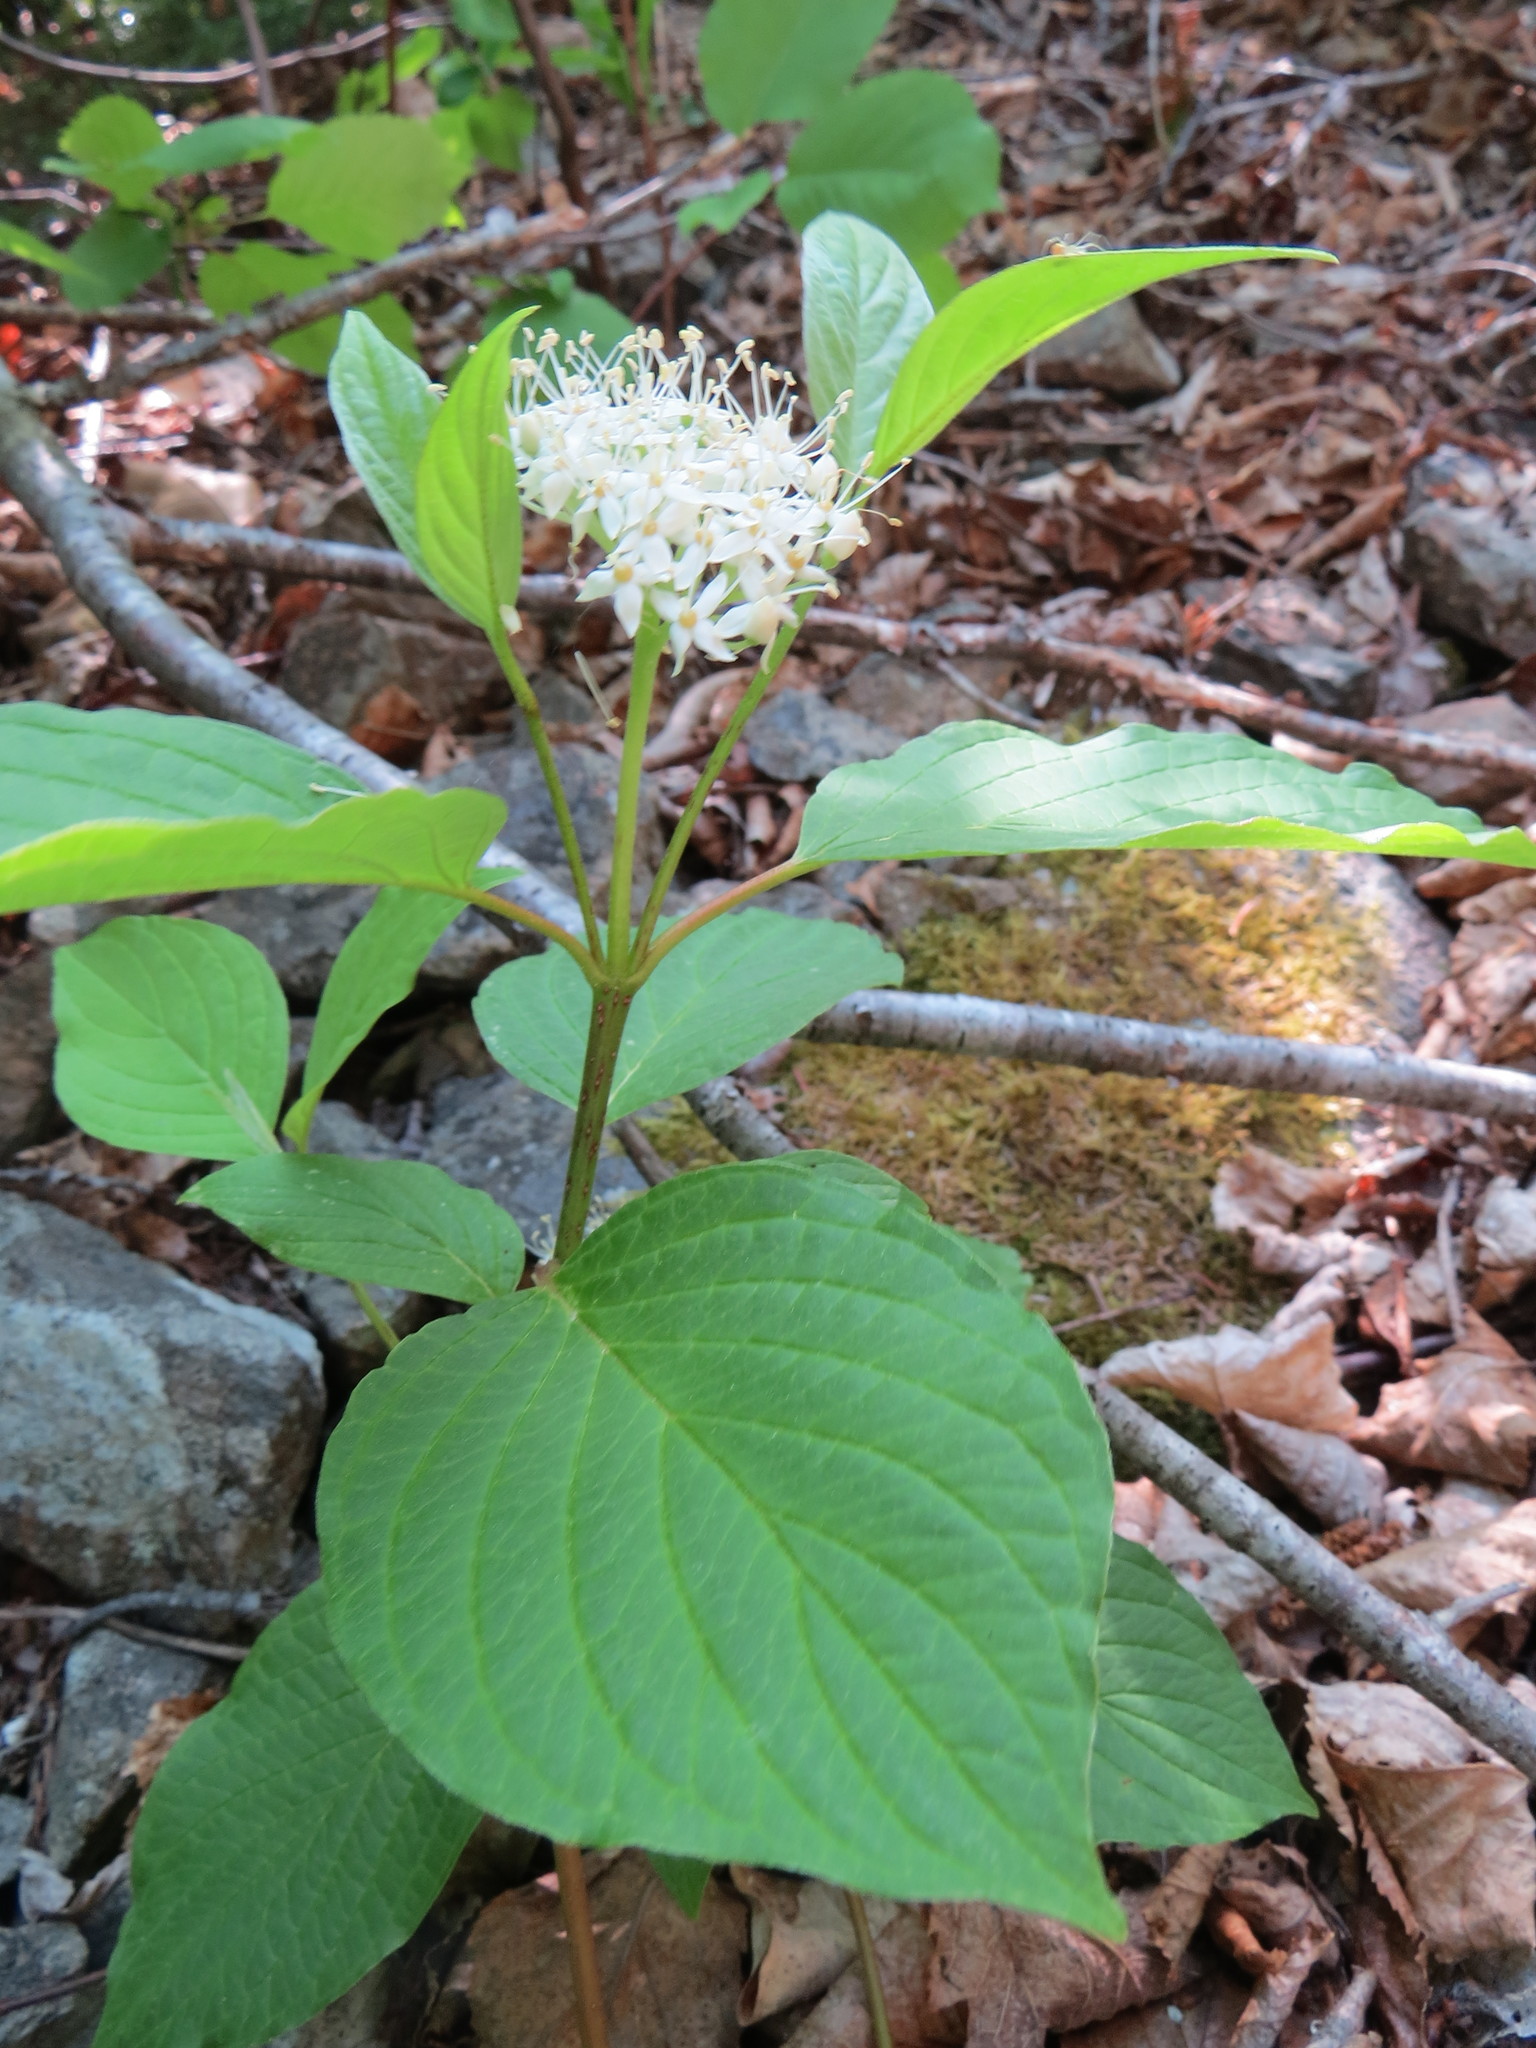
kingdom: Plantae
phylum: Tracheophyta
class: Magnoliopsida
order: Cornales
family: Cornaceae
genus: Cornus
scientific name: Cornus sericea
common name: Red-osier dogwood
